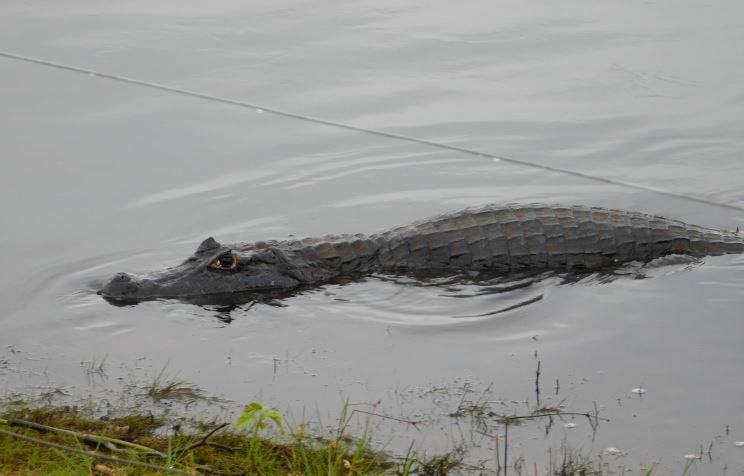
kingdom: Animalia
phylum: Chordata
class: Crocodylia
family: Alligatoridae
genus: Caiman
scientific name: Caiman yacare
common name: Yacare caiman
